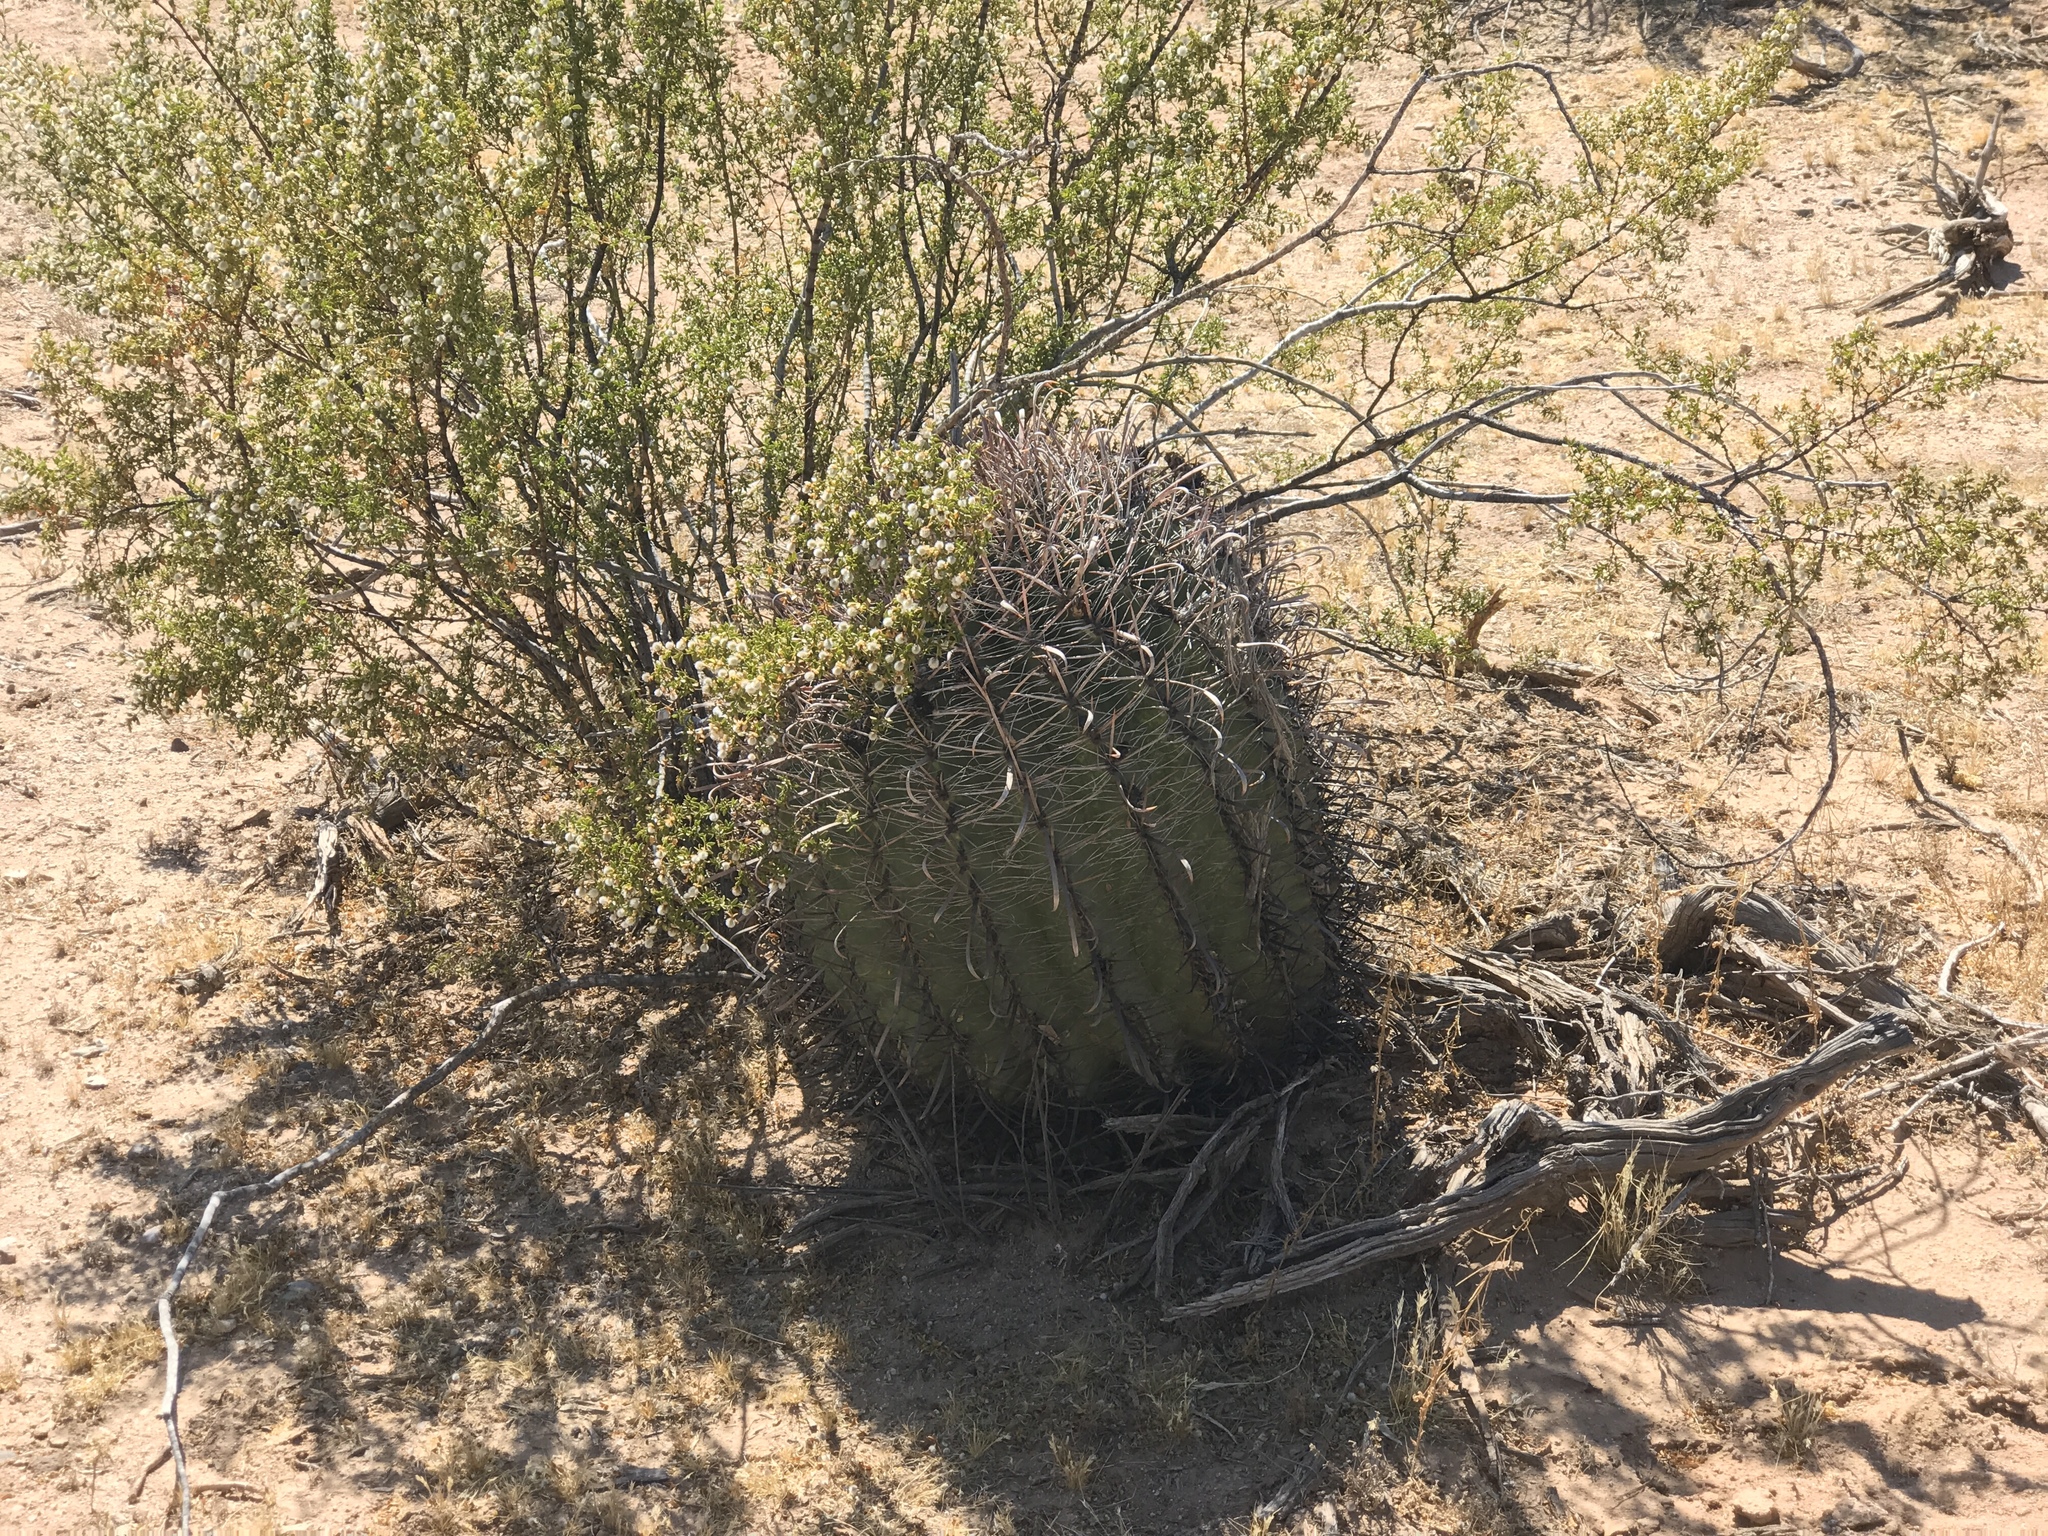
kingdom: Plantae
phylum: Tracheophyta
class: Magnoliopsida
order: Caryophyllales
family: Cactaceae
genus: Ferocactus
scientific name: Ferocactus wislizeni
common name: Candy barrel cactus
